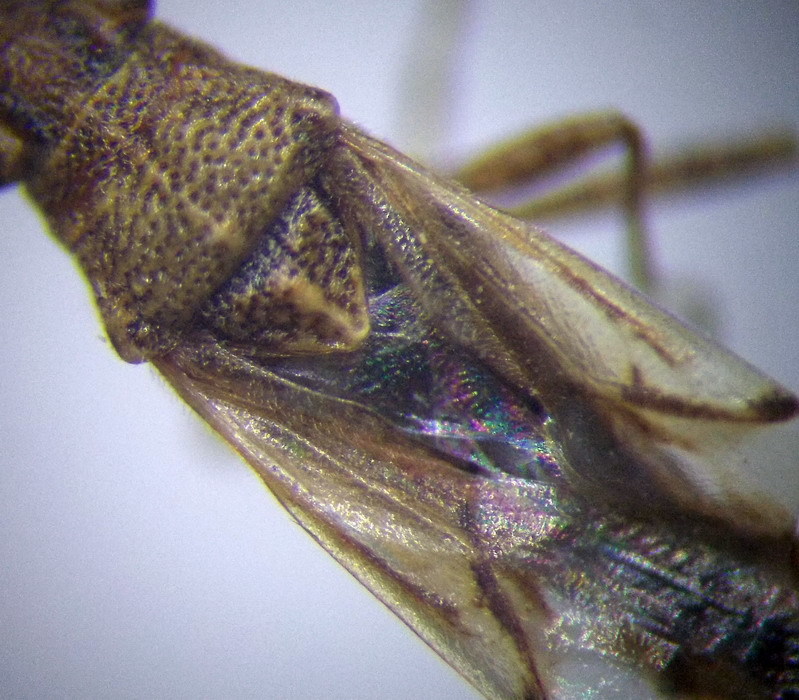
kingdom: Animalia
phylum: Arthropoda
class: Insecta
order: Hemiptera
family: Lygaeidae
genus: Nysius
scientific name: Nysius helveticus
